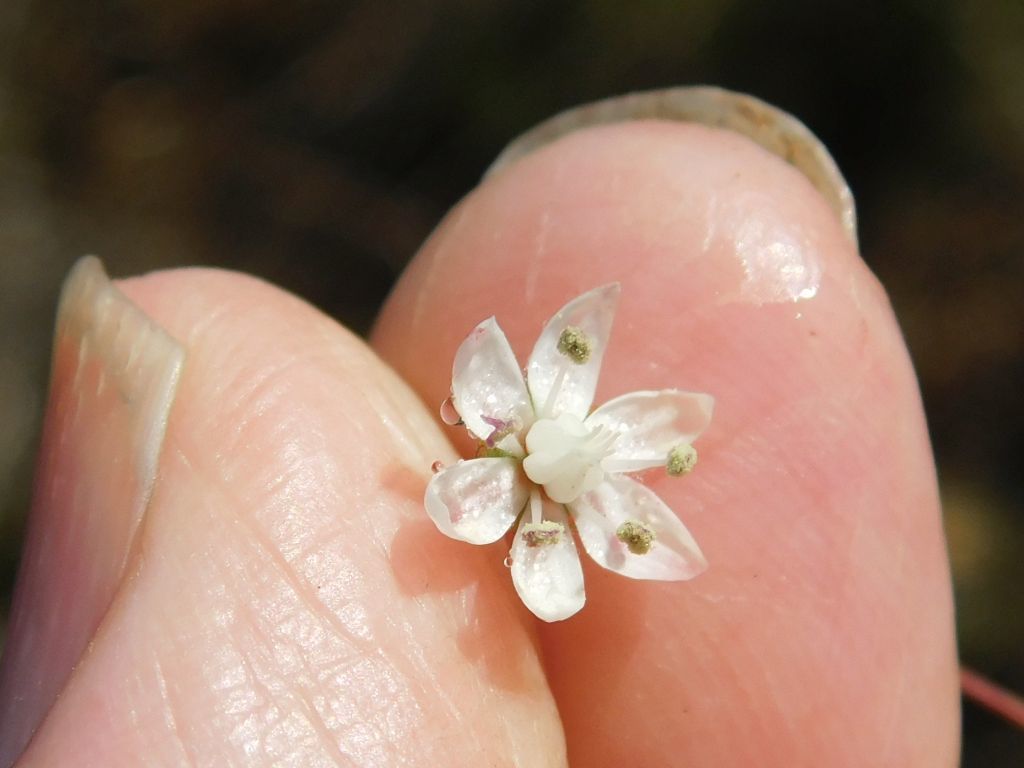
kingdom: Plantae
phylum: Tracheophyta
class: Magnoliopsida
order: Saxifragales
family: Crassulaceae
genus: Crassula
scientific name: Crassula capensis
